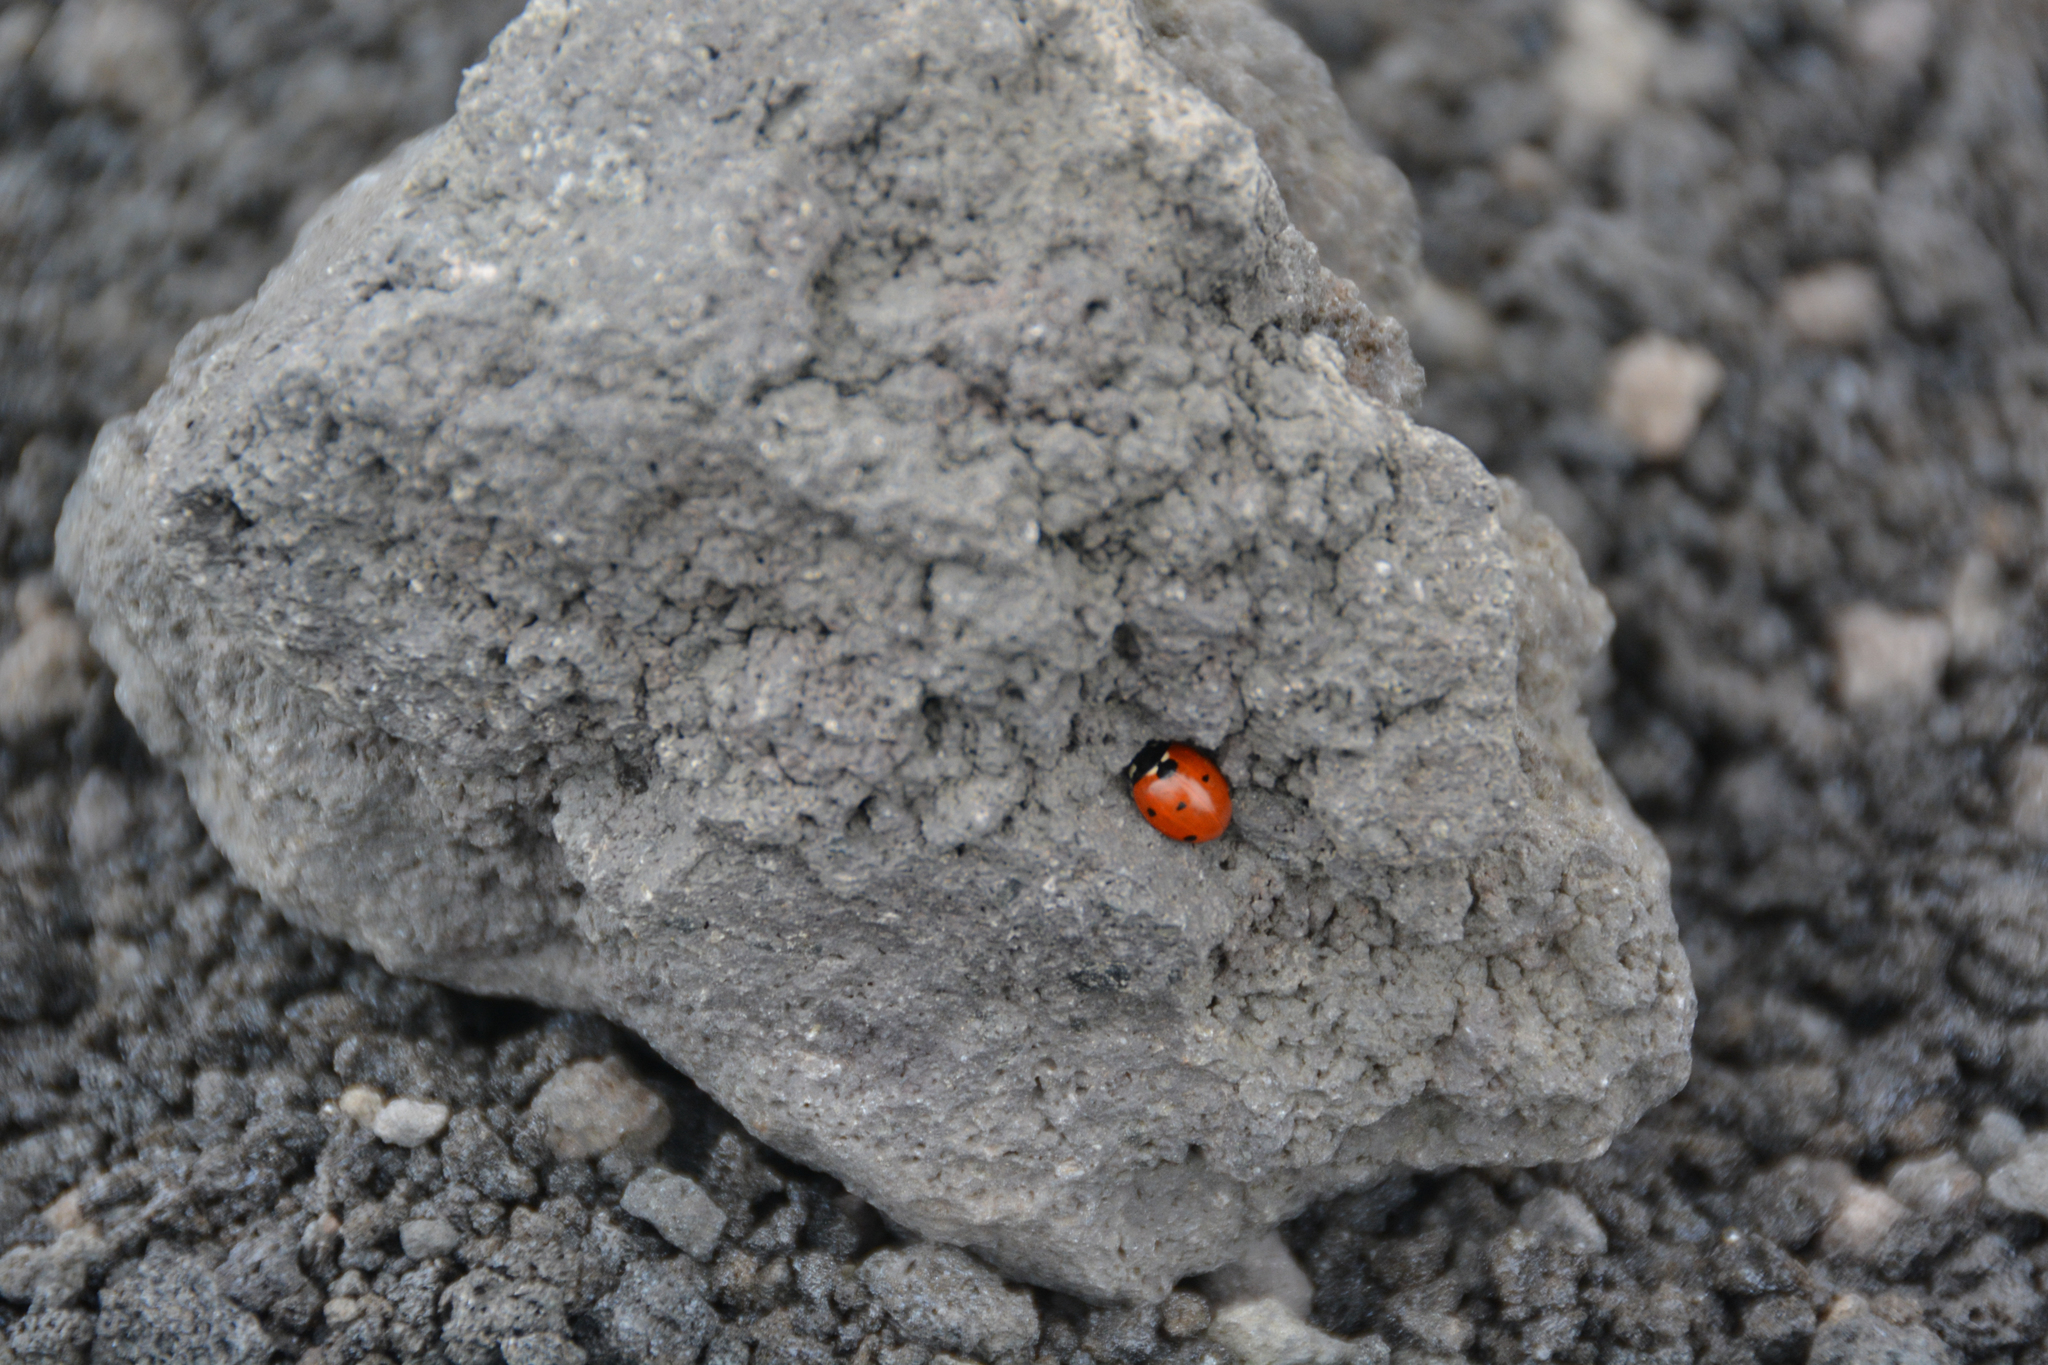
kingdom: Animalia
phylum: Arthropoda
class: Insecta
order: Coleoptera
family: Coccinellidae
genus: Coccinella
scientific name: Coccinella septempunctata
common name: Sevenspotted lady beetle
